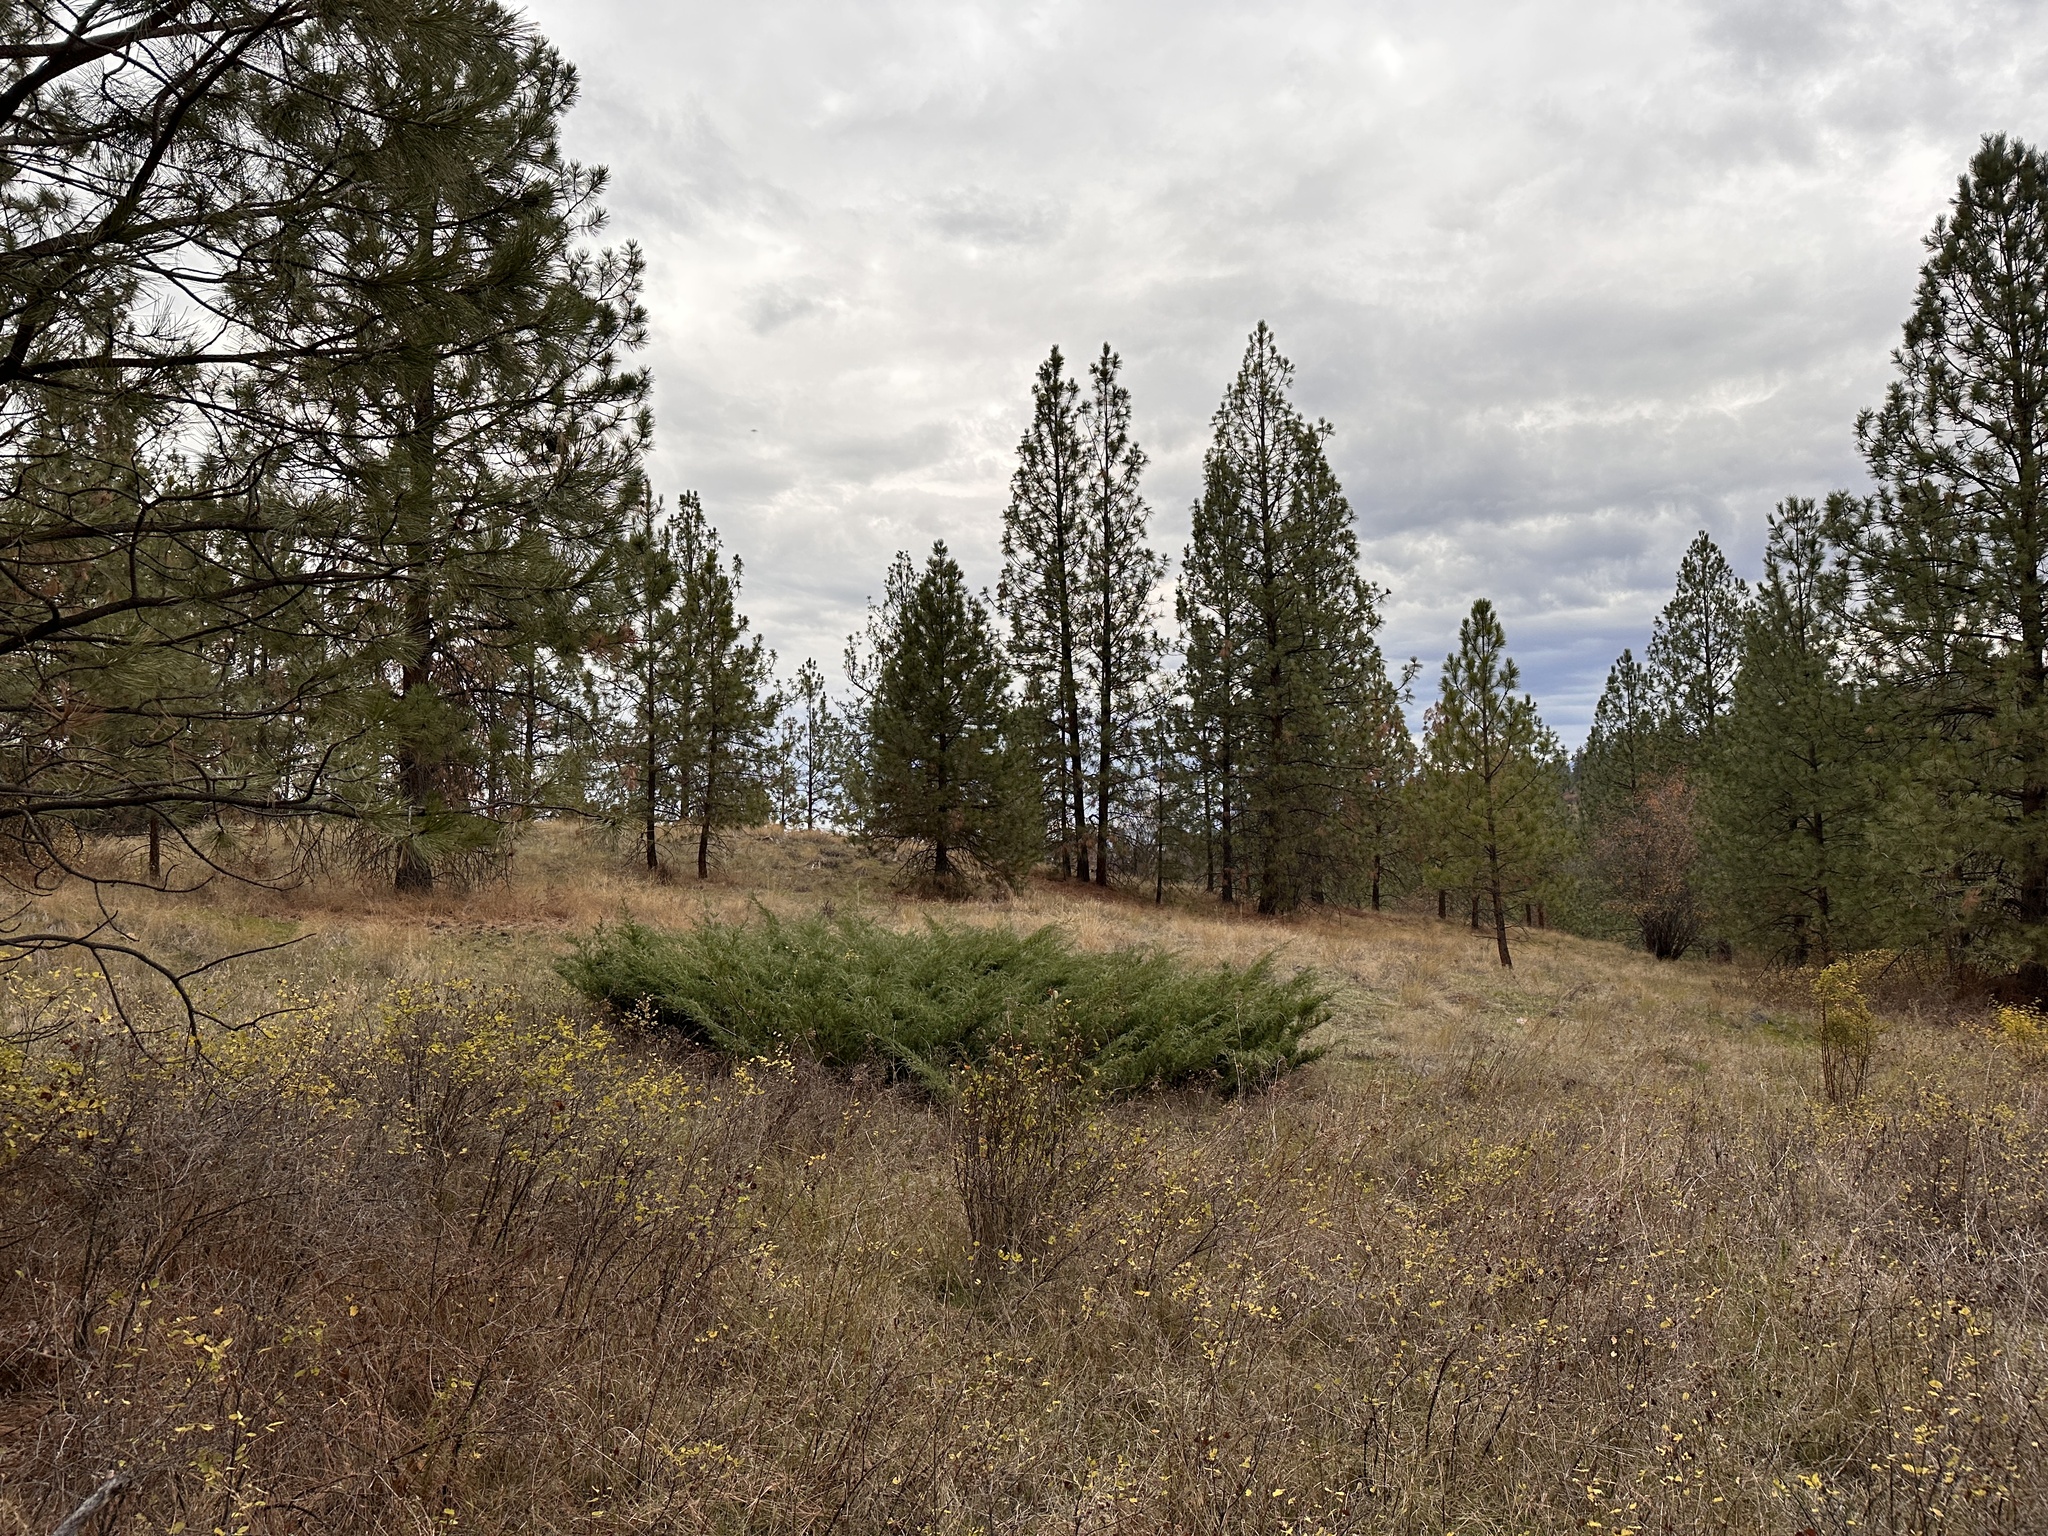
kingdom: Plantae
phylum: Tracheophyta
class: Pinopsida
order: Pinales
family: Cupressaceae
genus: Juniperus
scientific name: Juniperus horizontalis
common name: Creeping juniper
